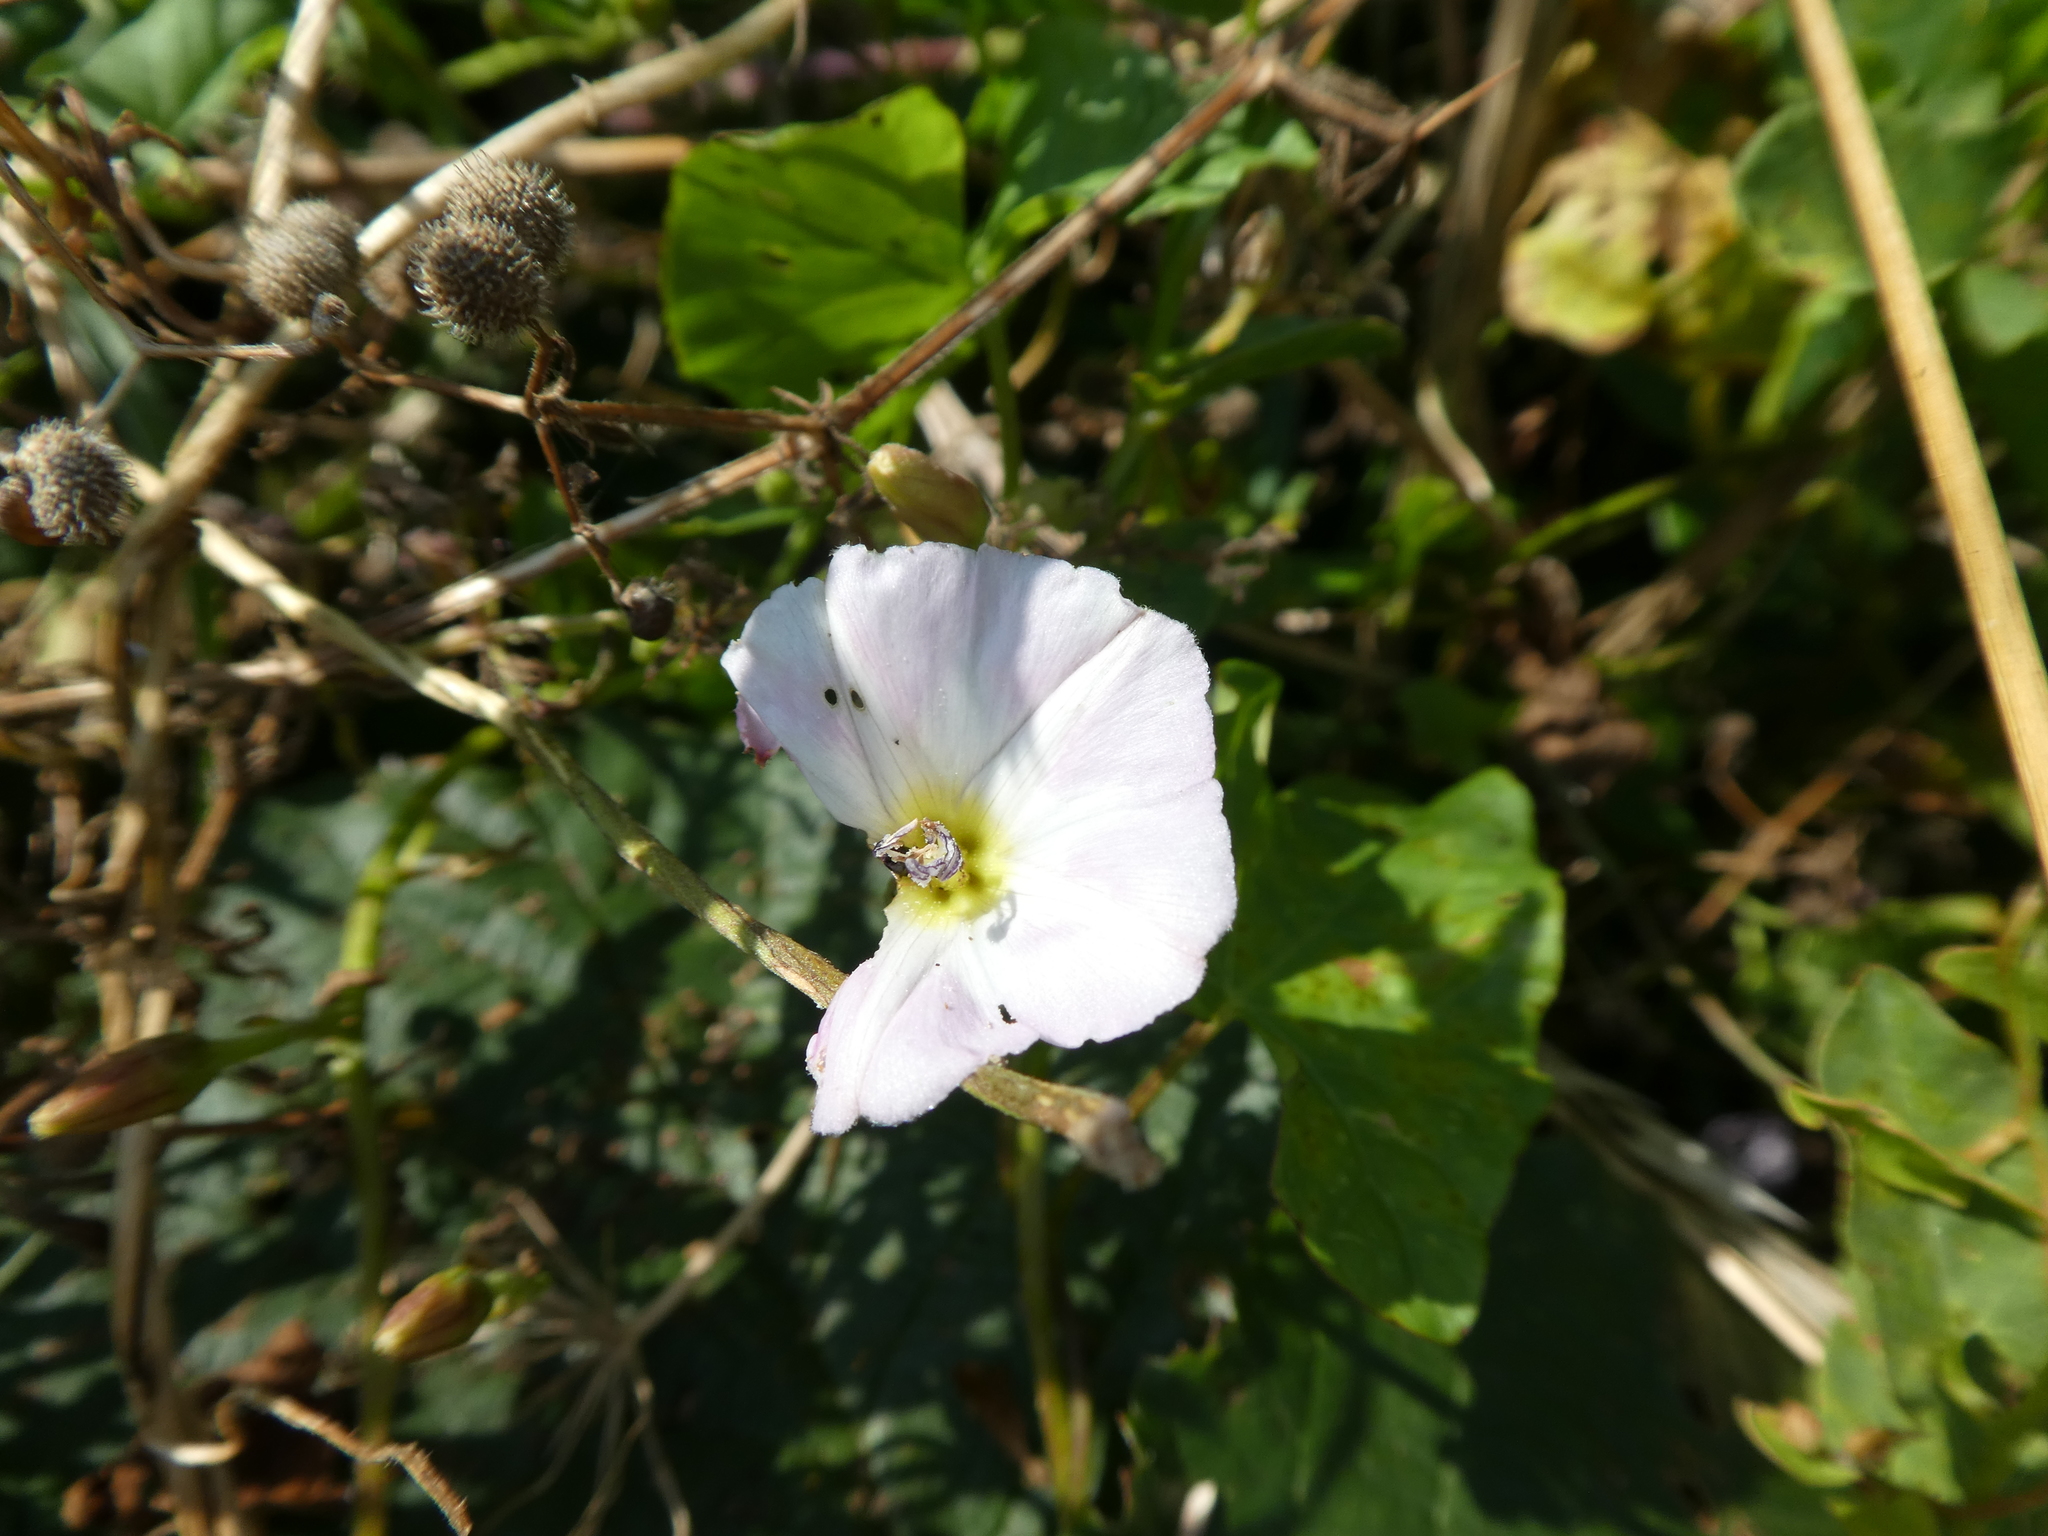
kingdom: Plantae
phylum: Tracheophyta
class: Magnoliopsida
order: Solanales
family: Convolvulaceae
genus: Convolvulus
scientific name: Convolvulus arvensis
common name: Field bindweed
